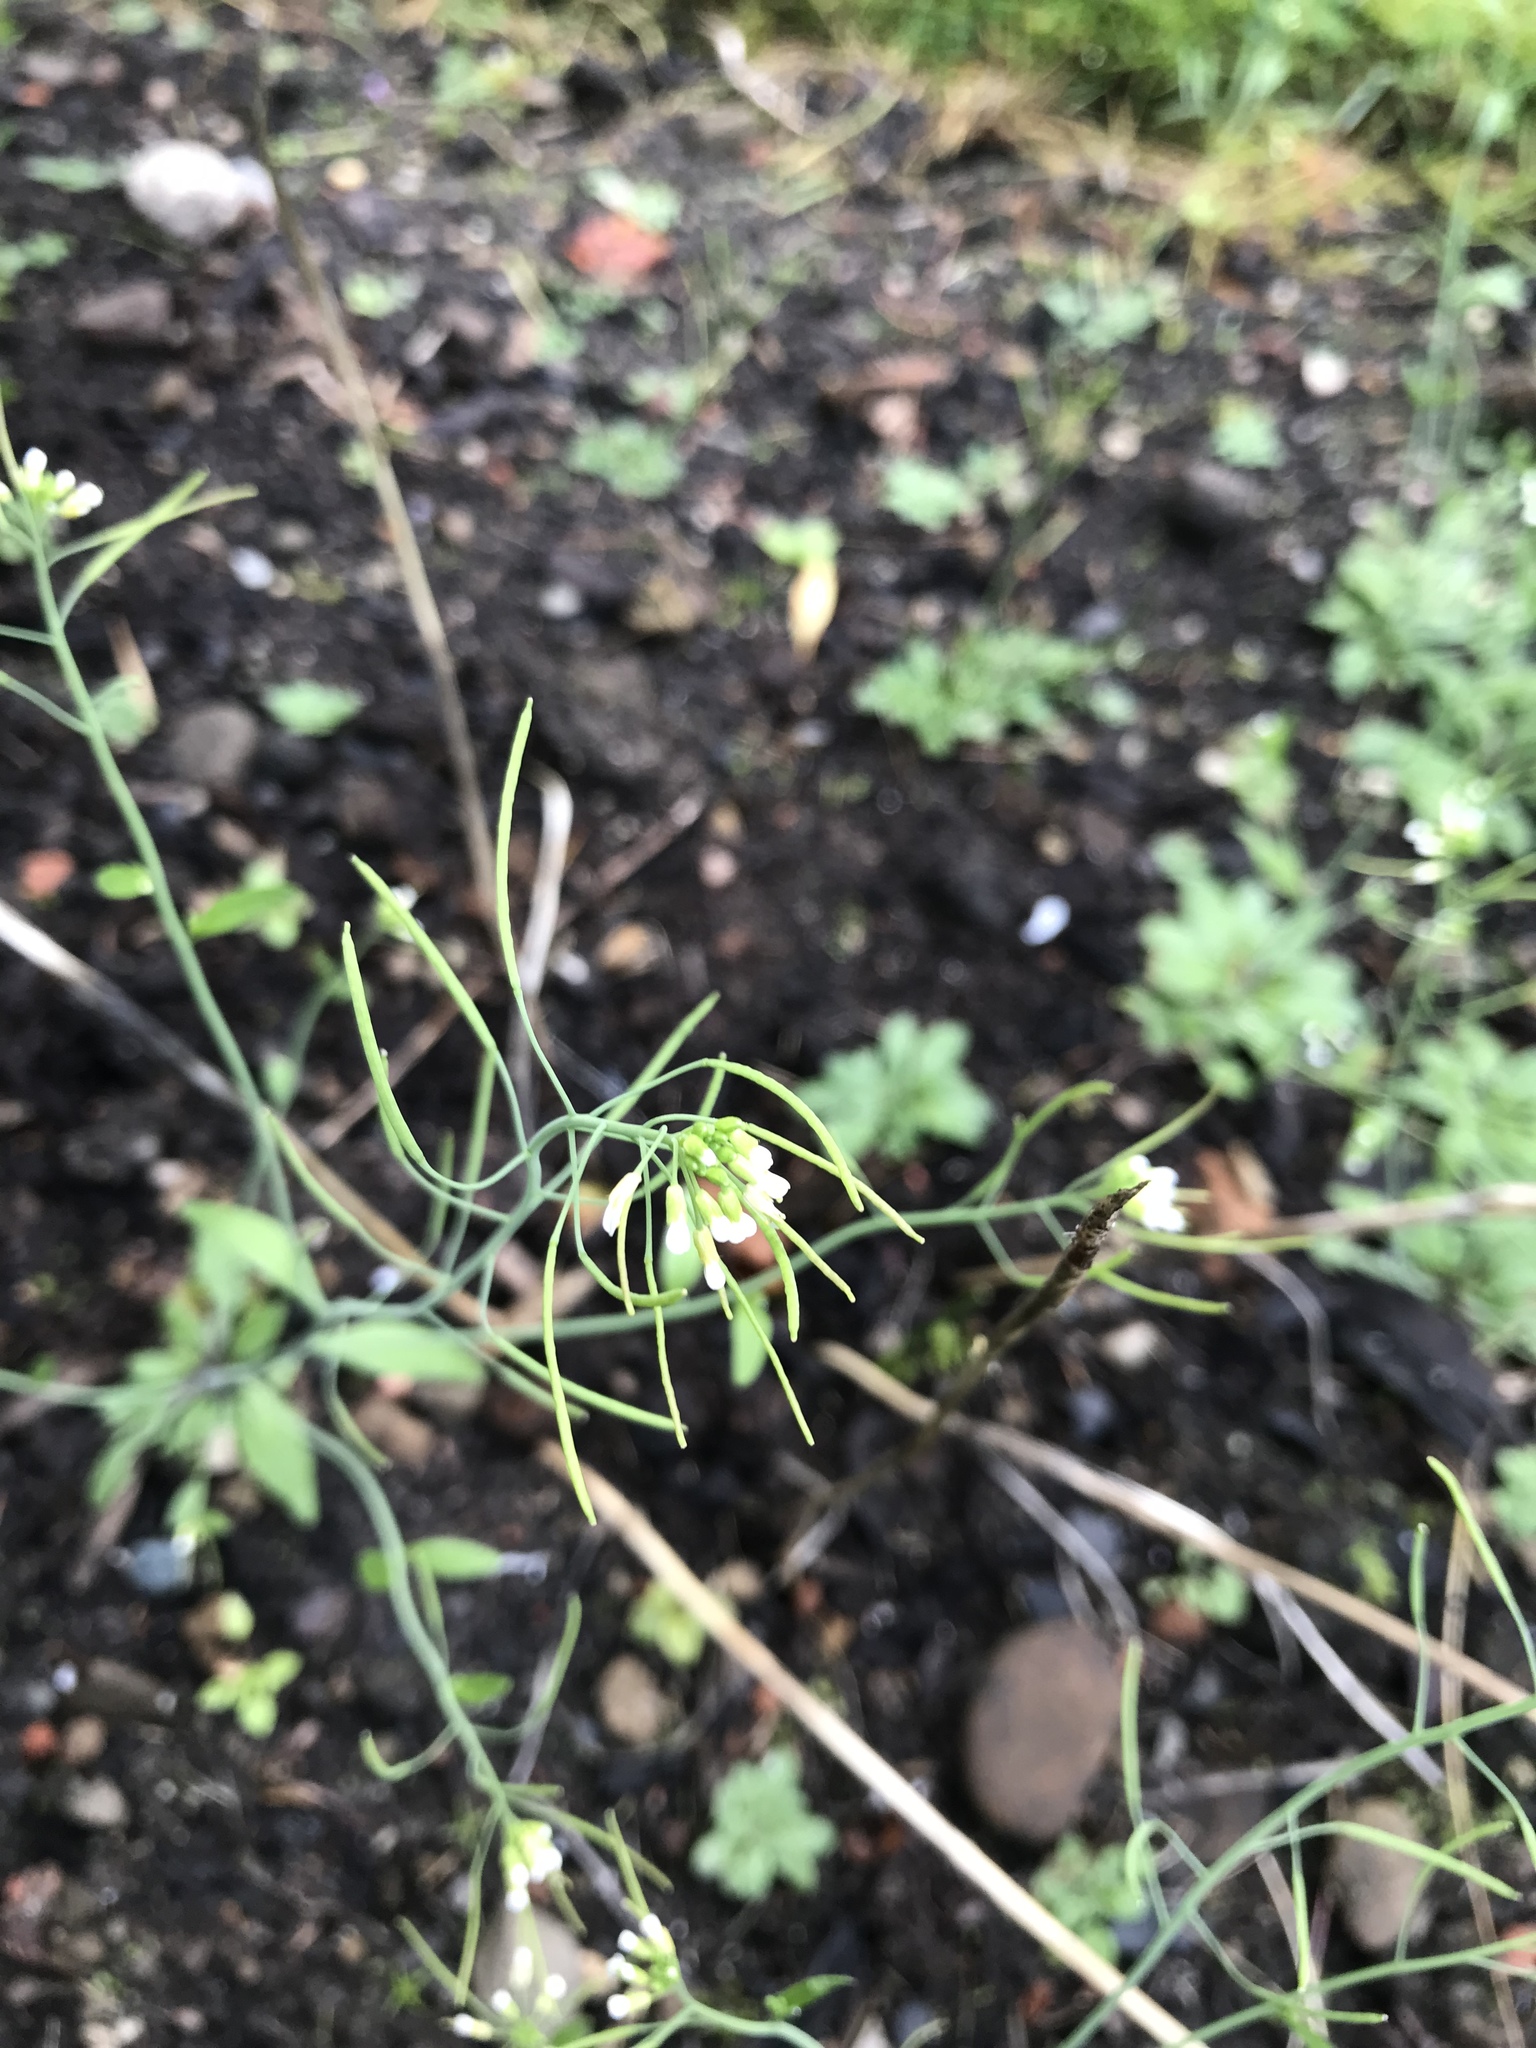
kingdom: Plantae
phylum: Tracheophyta
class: Magnoliopsida
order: Brassicales
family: Brassicaceae
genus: Arabidopsis
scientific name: Arabidopsis thaliana
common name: Thale cress
